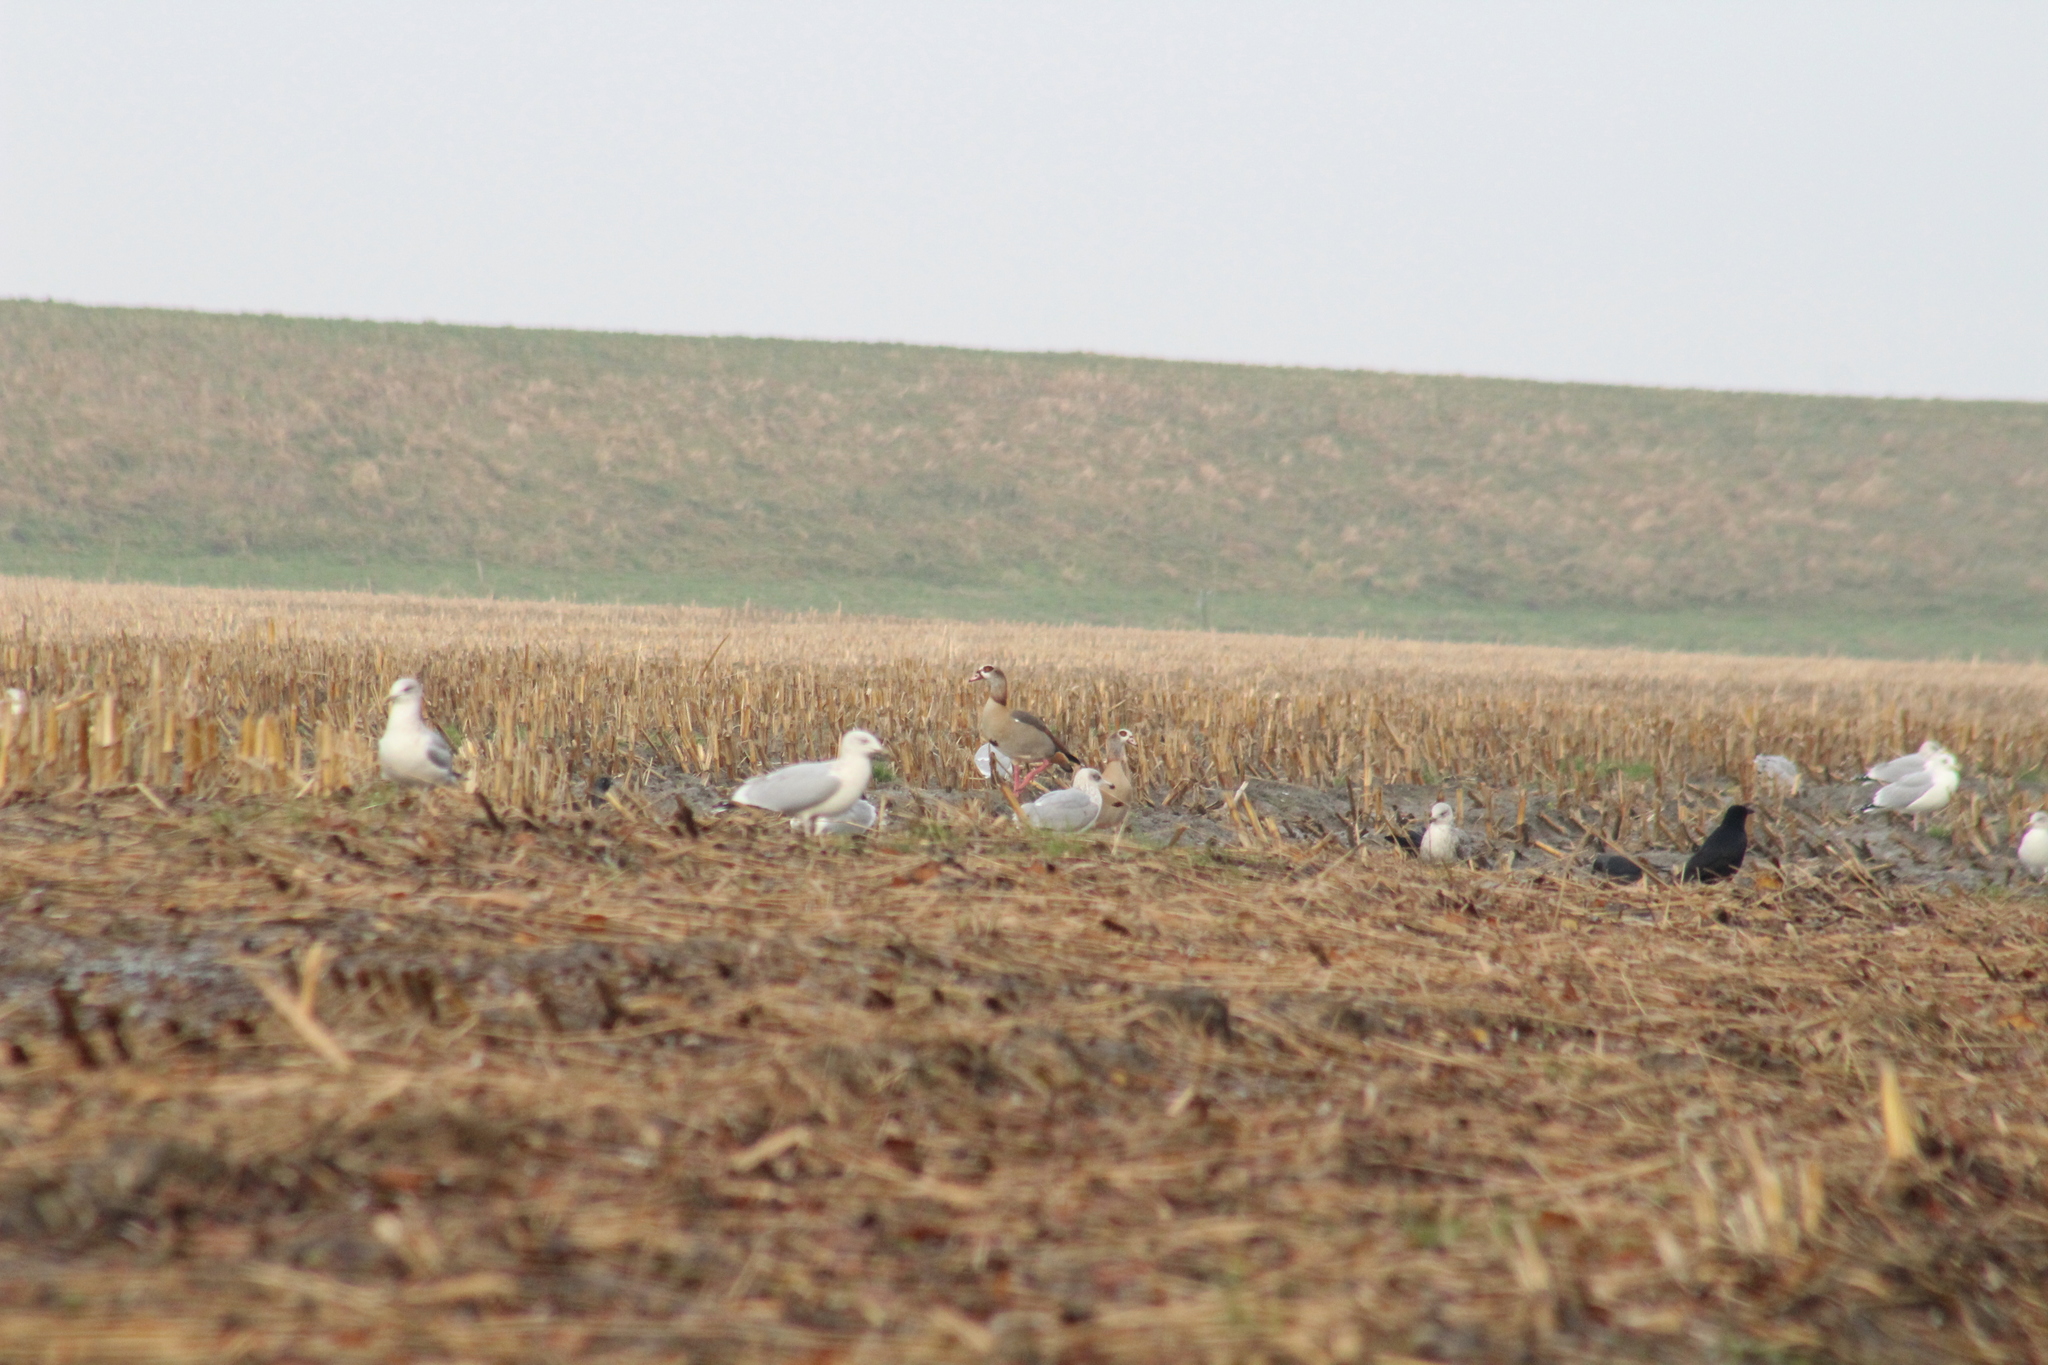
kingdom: Animalia
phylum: Chordata
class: Aves
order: Anseriformes
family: Anatidae
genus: Alopochen
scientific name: Alopochen aegyptiaca
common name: Egyptian goose
